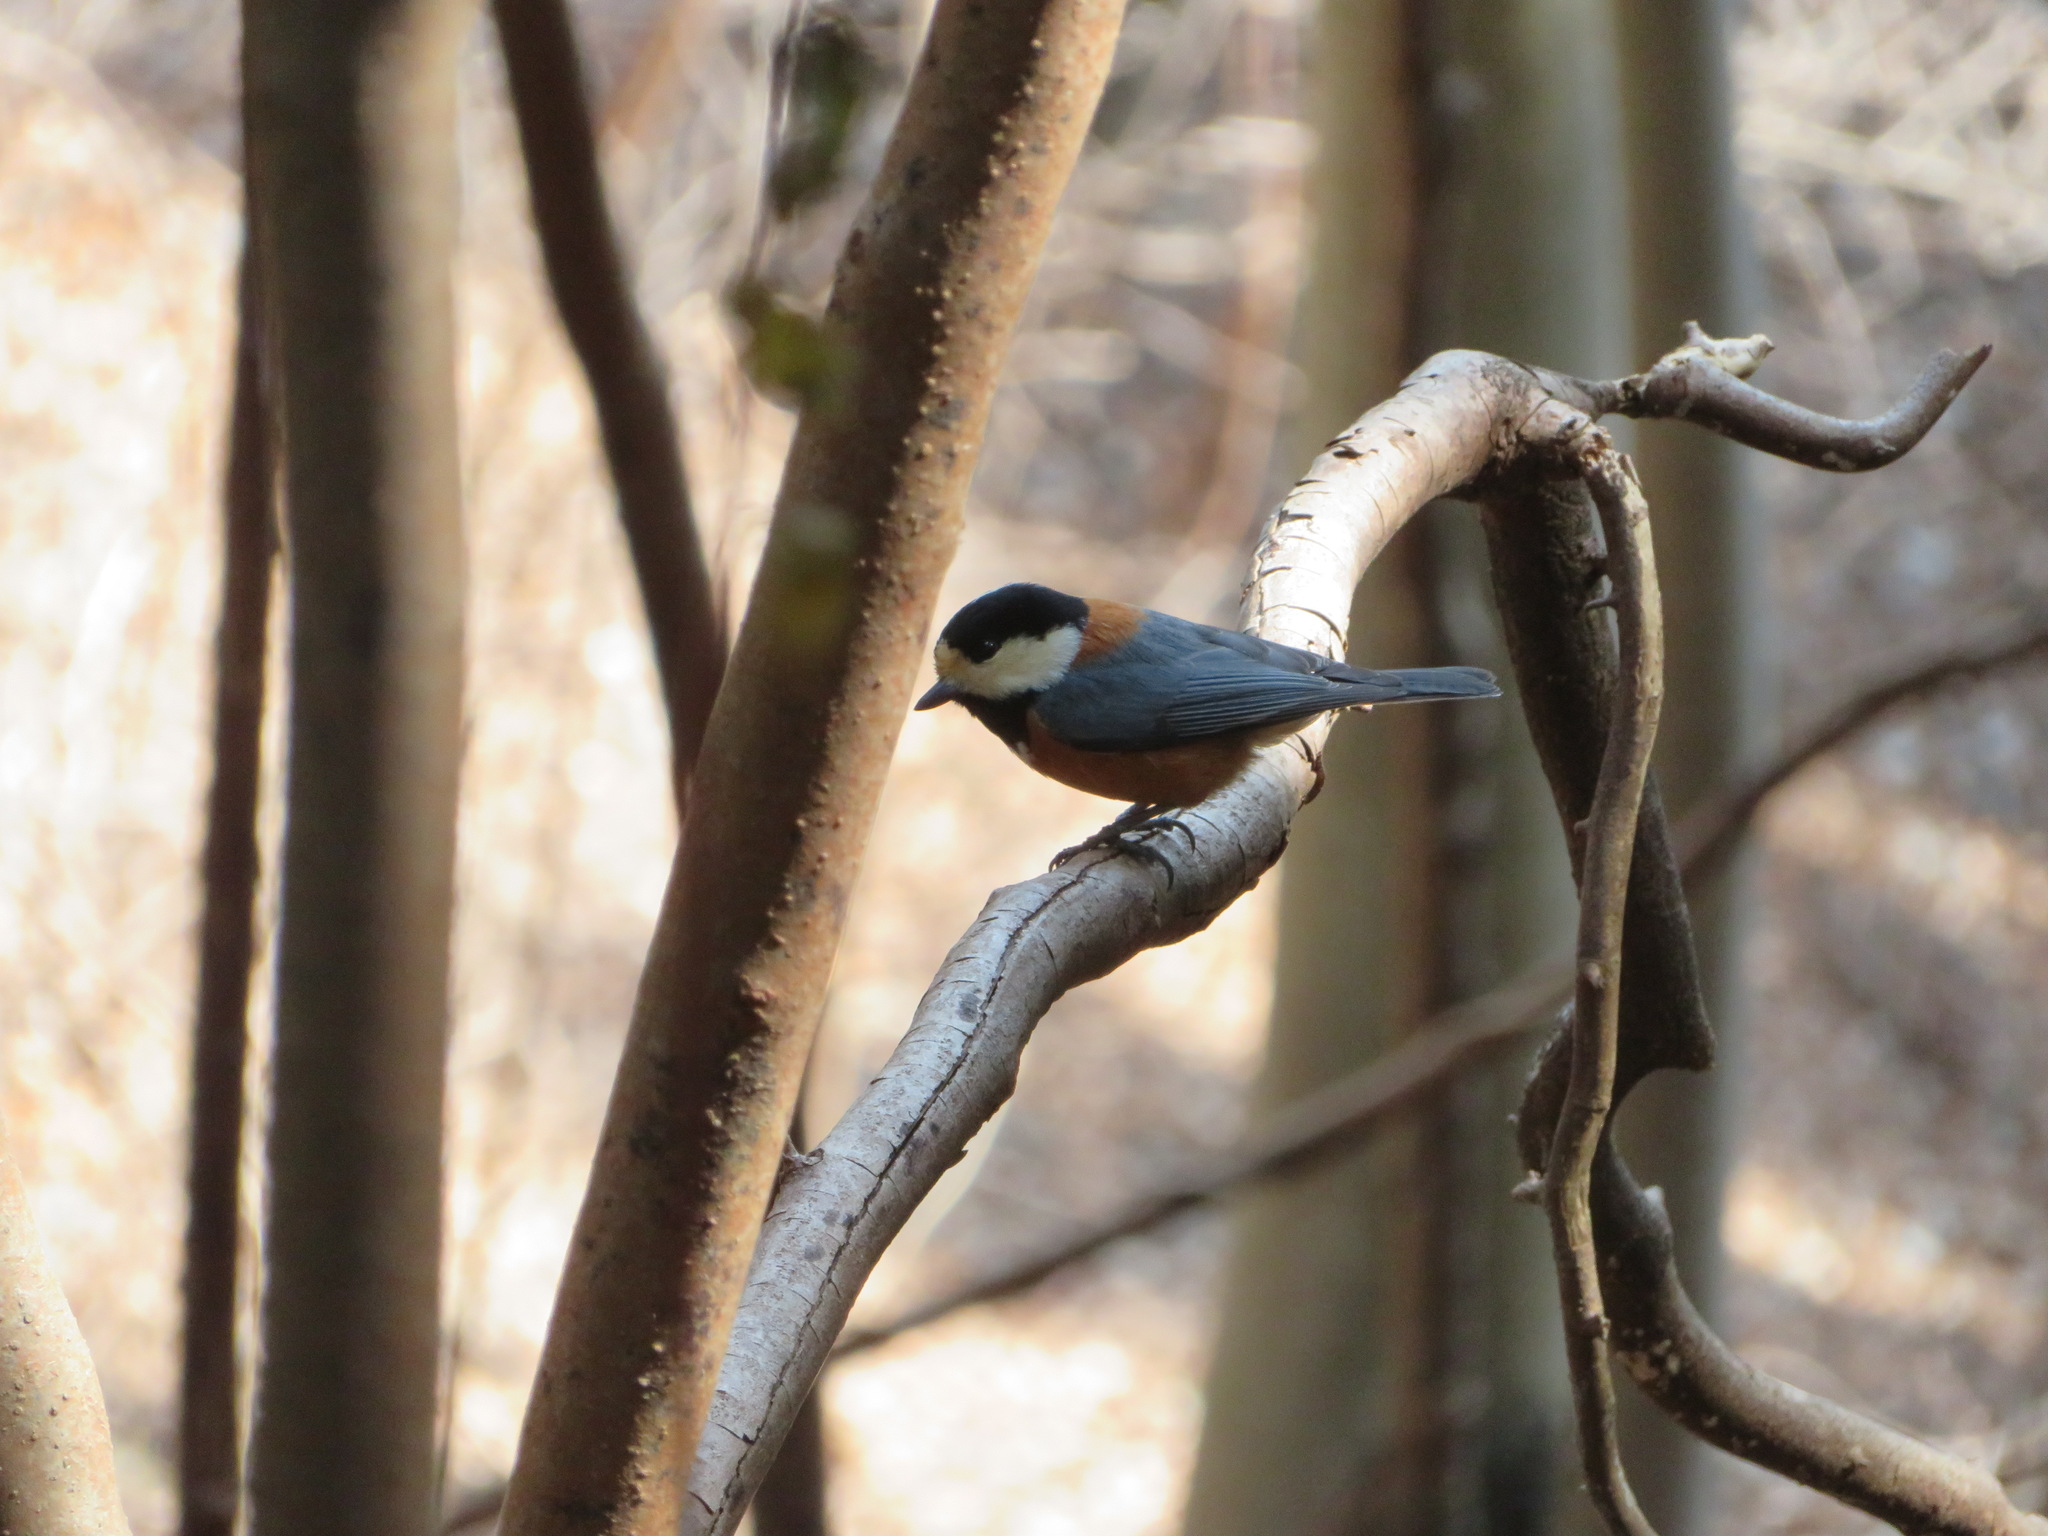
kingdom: Animalia
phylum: Chordata
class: Aves
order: Passeriformes
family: Paridae
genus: Poecile
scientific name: Poecile varius
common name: Varied tit
